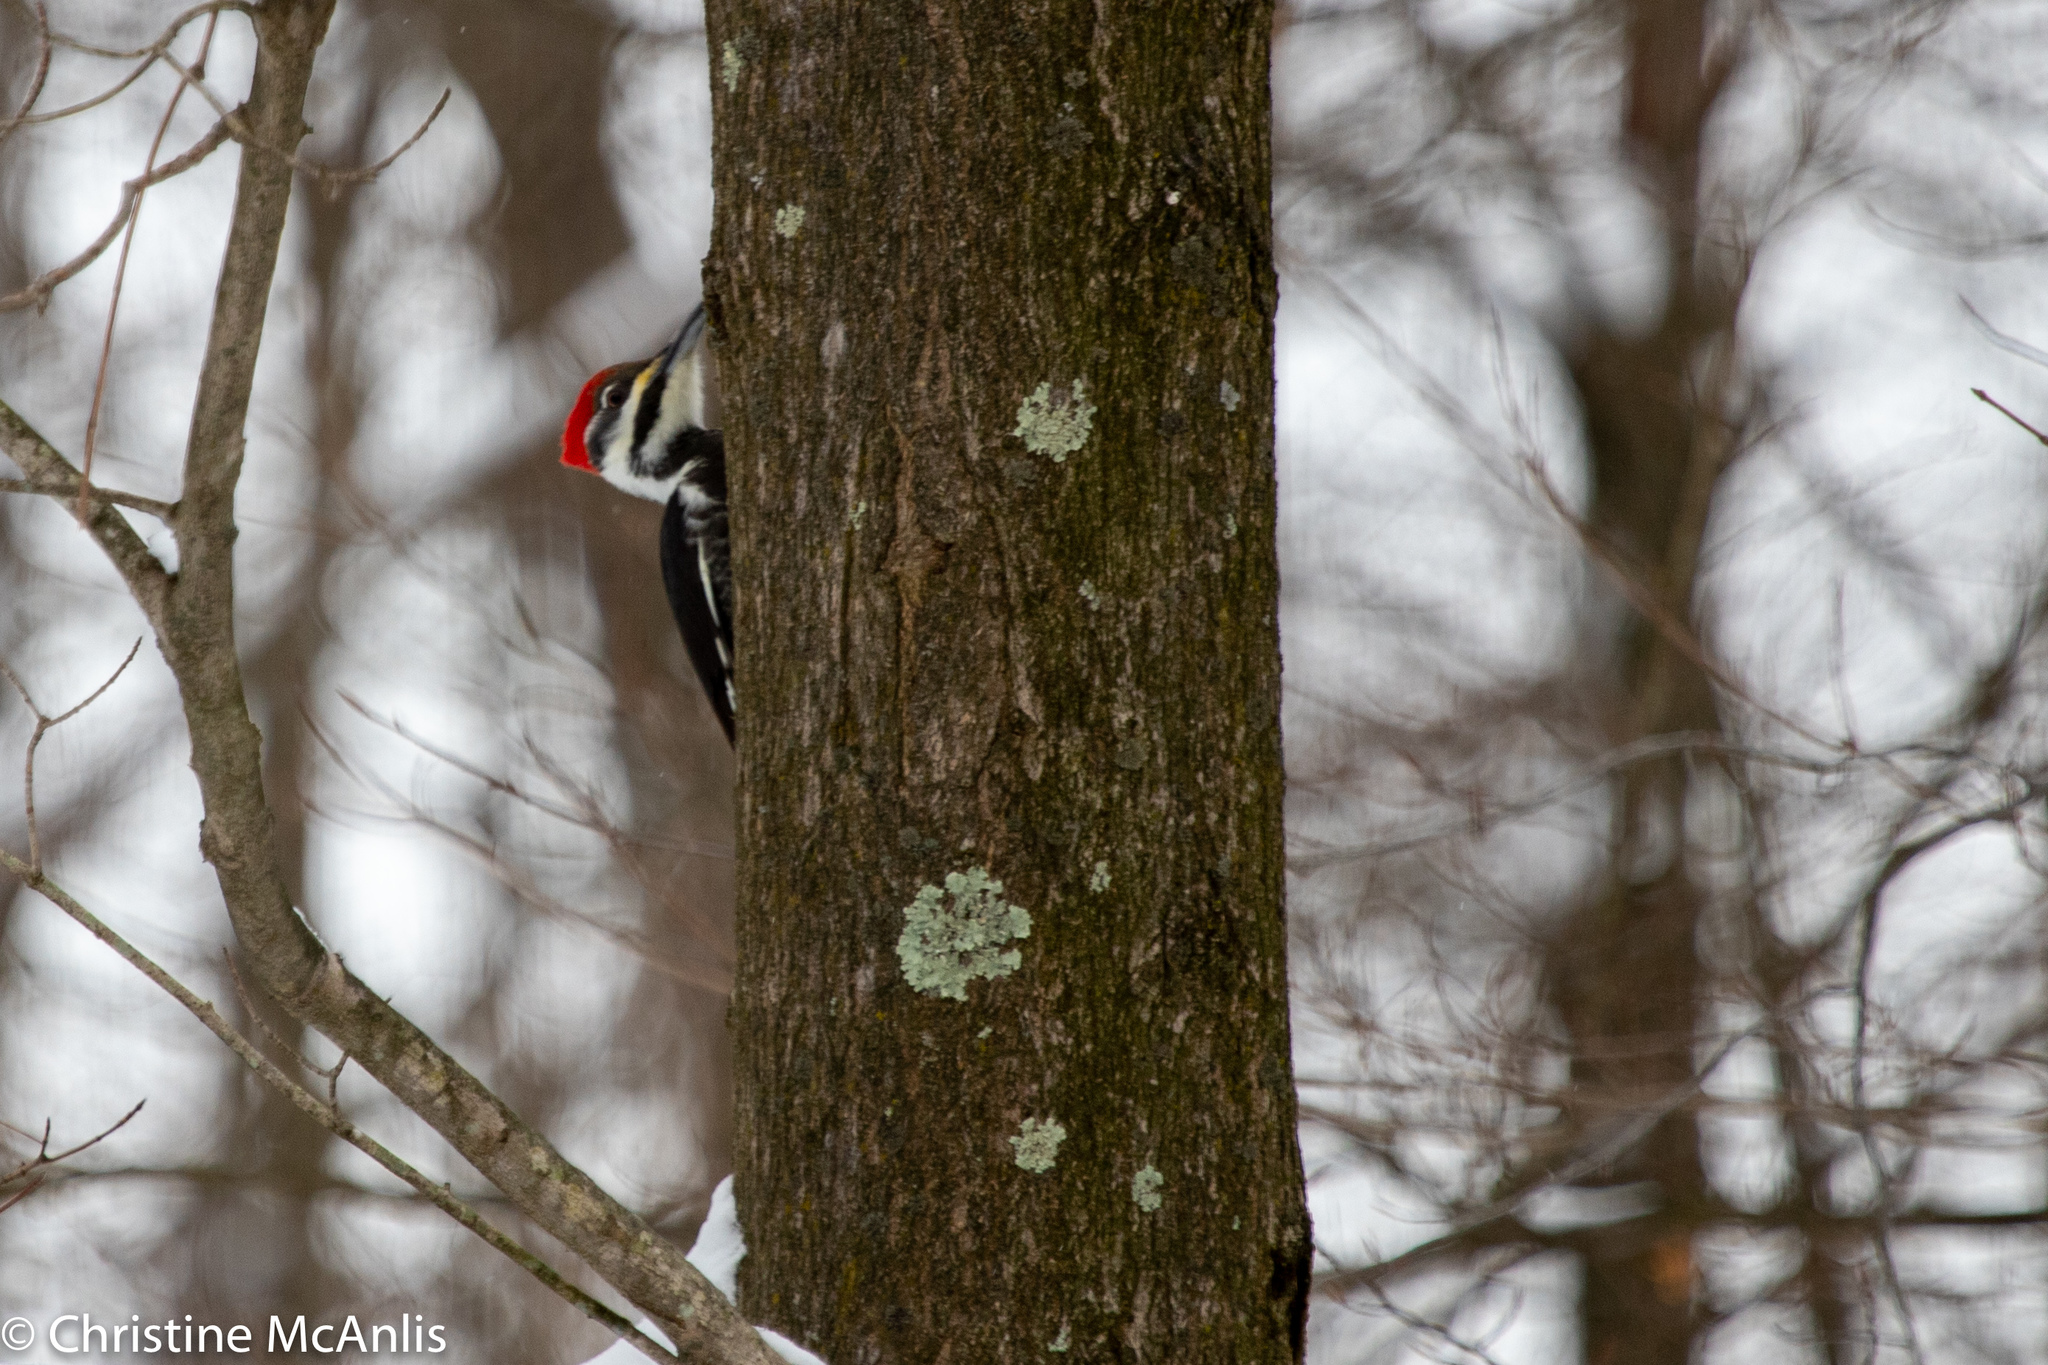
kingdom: Animalia
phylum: Chordata
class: Aves
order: Piciformes
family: Picidae
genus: Dryocopus
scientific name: Dryocopus pileatus
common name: Pileated woodpecker
